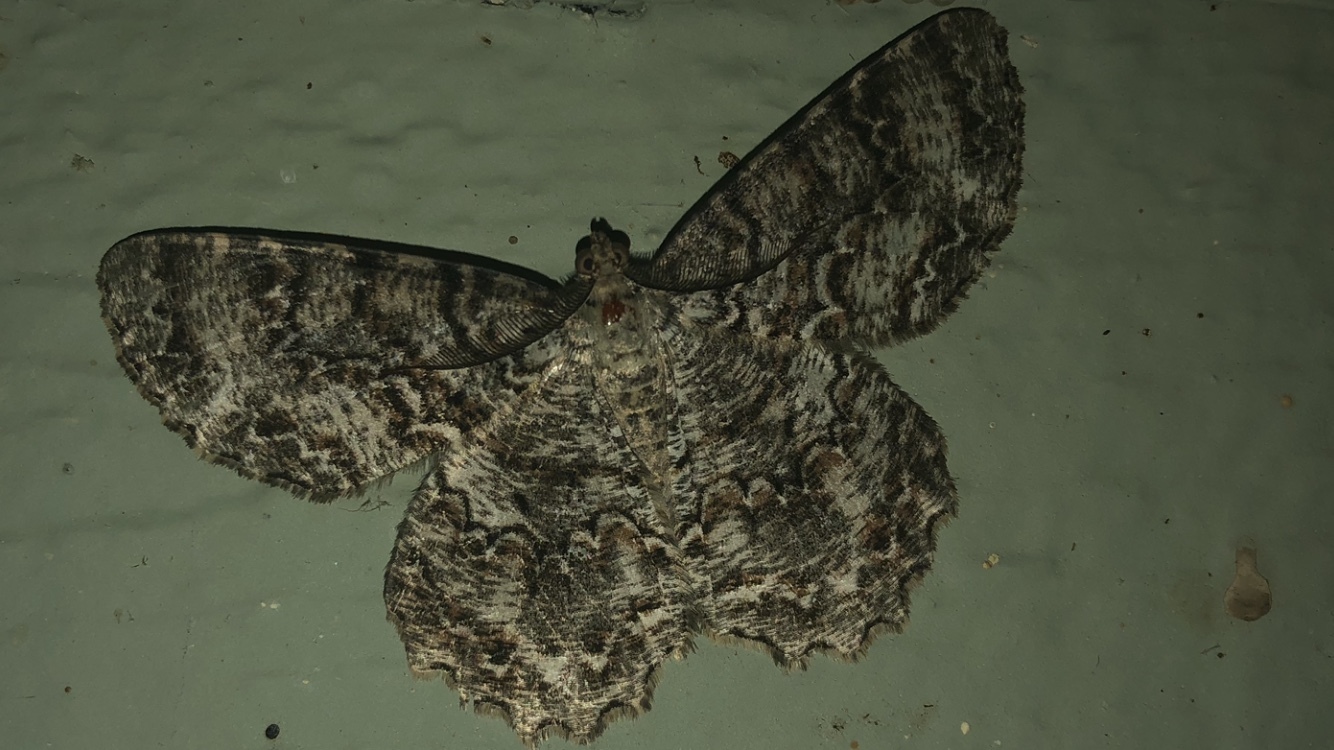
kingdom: Animalia
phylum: Arthropoda
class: Insecta
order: Lepidoptera
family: Geometridae
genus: Epimecis
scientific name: Epimecis hortaria
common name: Tulip-tree beauty
